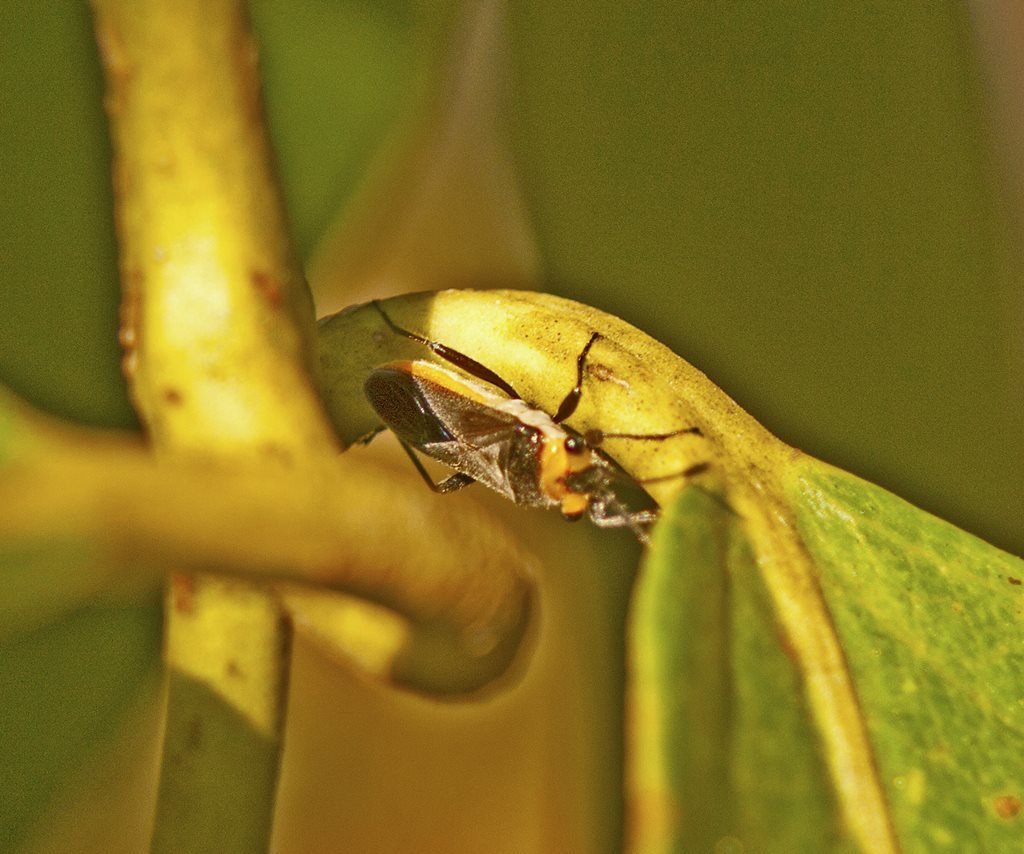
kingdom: Animalia
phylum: Arthropoda
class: Insecta
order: Hemiptera
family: Lygaeidae
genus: Scopiastes
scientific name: Scopiastes bicolor
